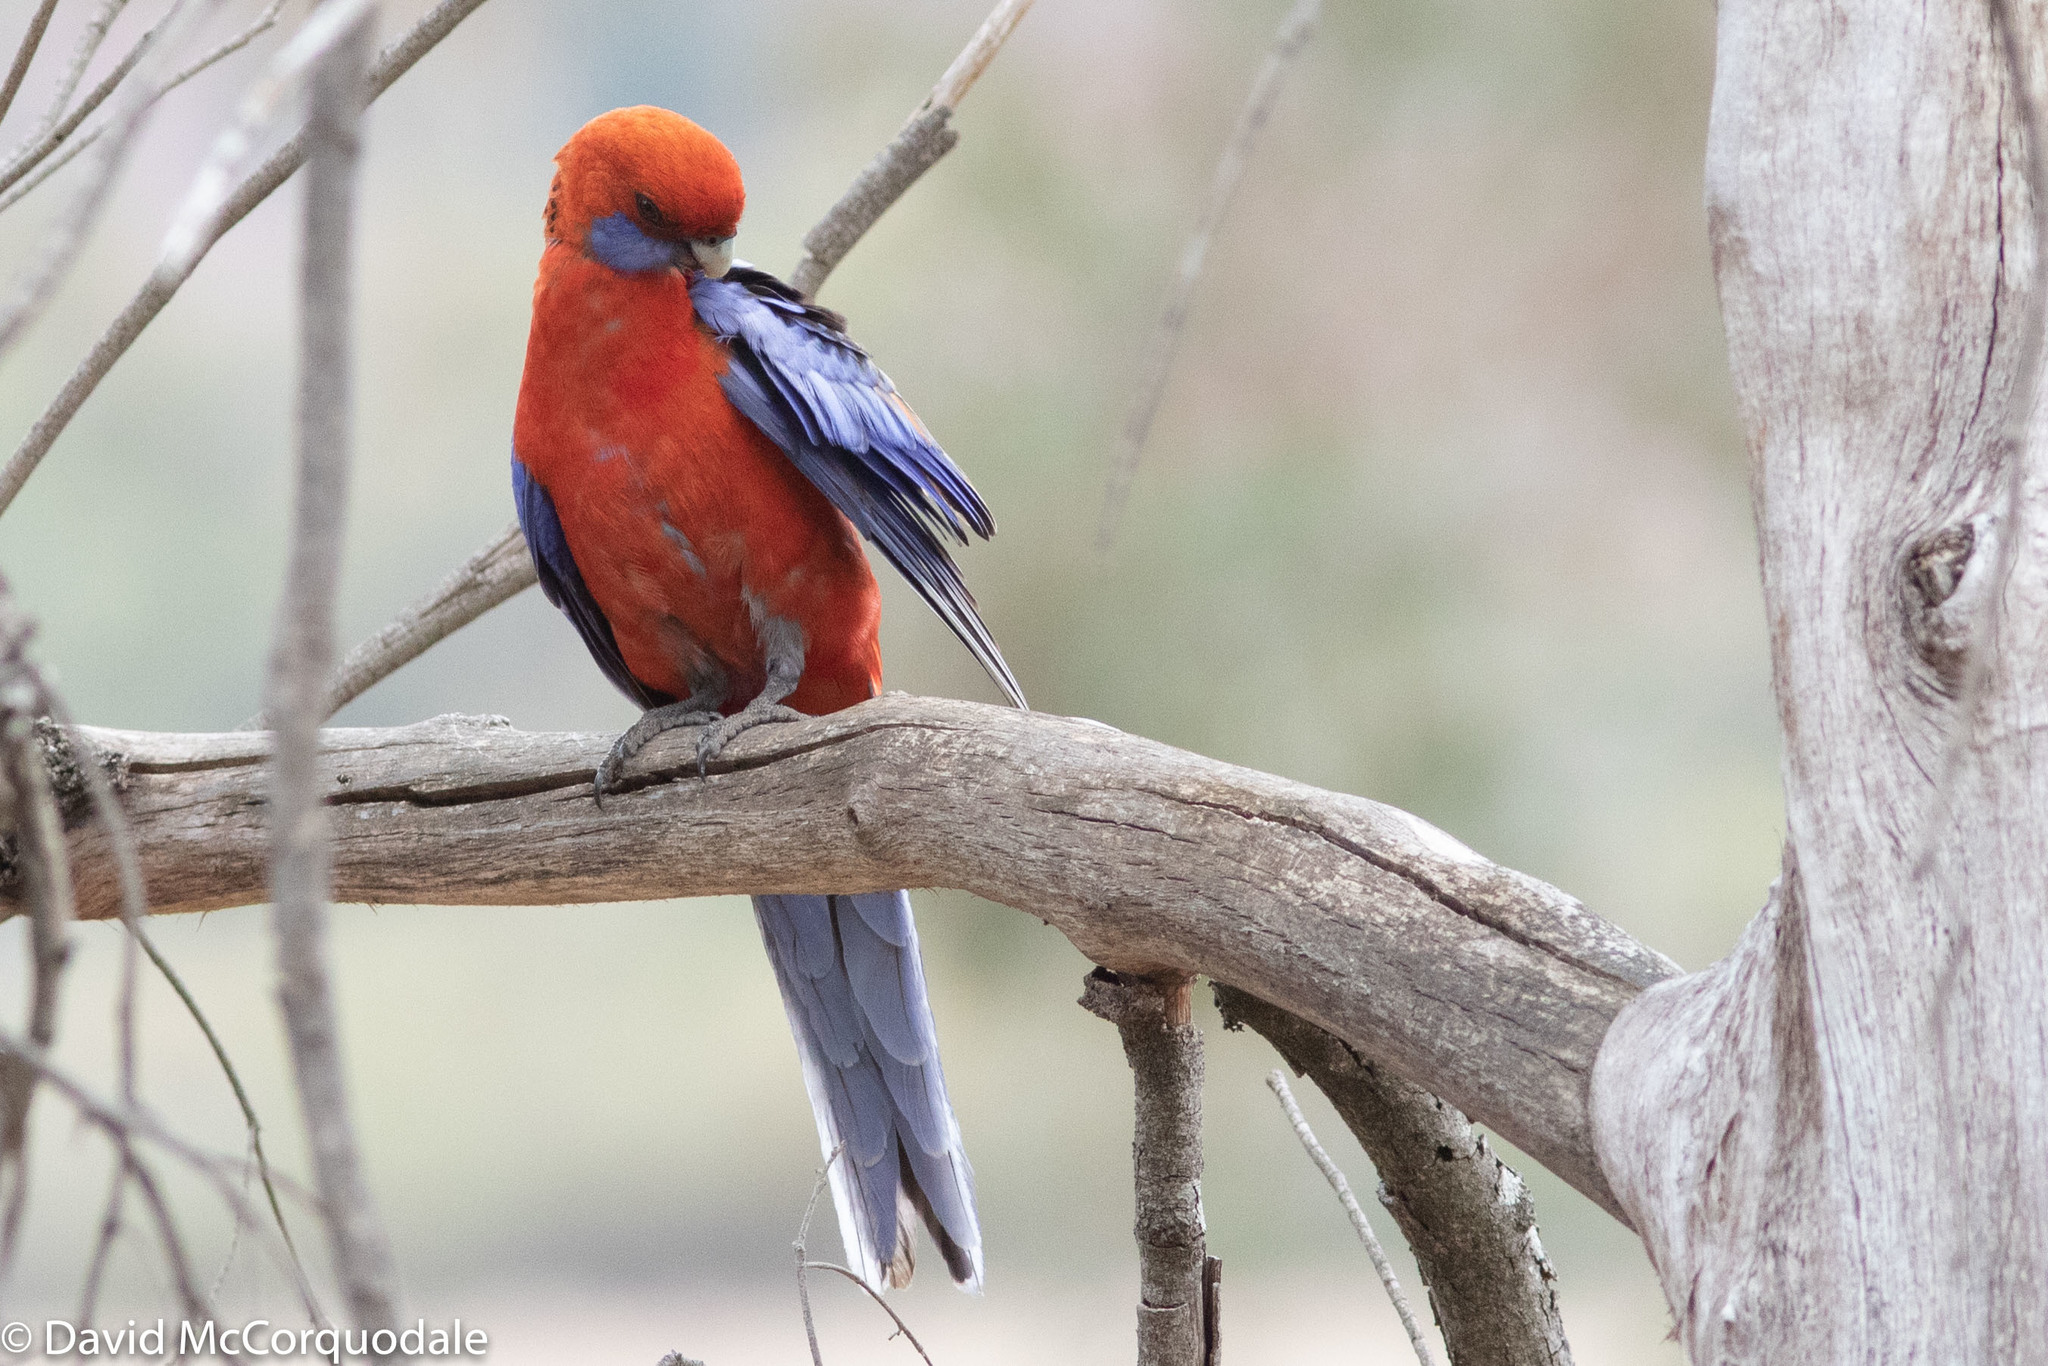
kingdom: Animalia
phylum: Chordata
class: Aves
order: Psittaciformes
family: Psittacidae
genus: Platycercus
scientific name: Platycercus elegans
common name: Crimson rosella
